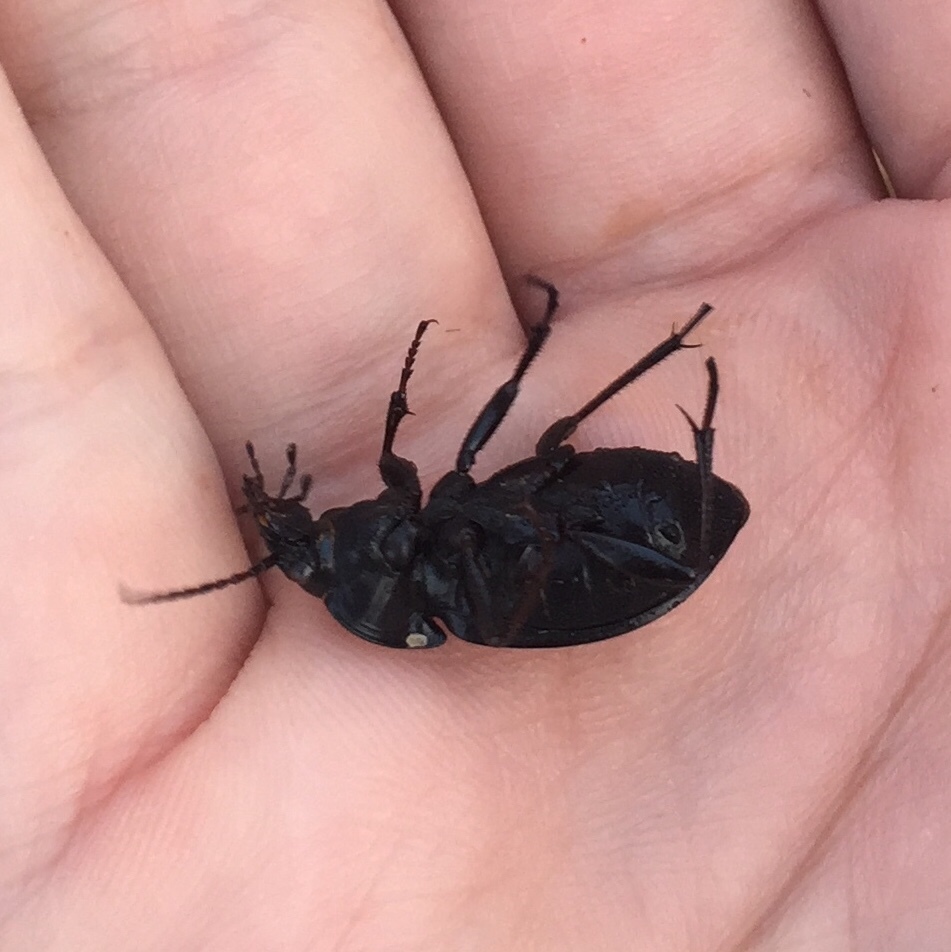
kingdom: Animalia
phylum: Arthropoda
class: Insecta
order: Coleoptera
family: Carabidae
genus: Carabus
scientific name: Carabus nemoralis
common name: European ground beetle
